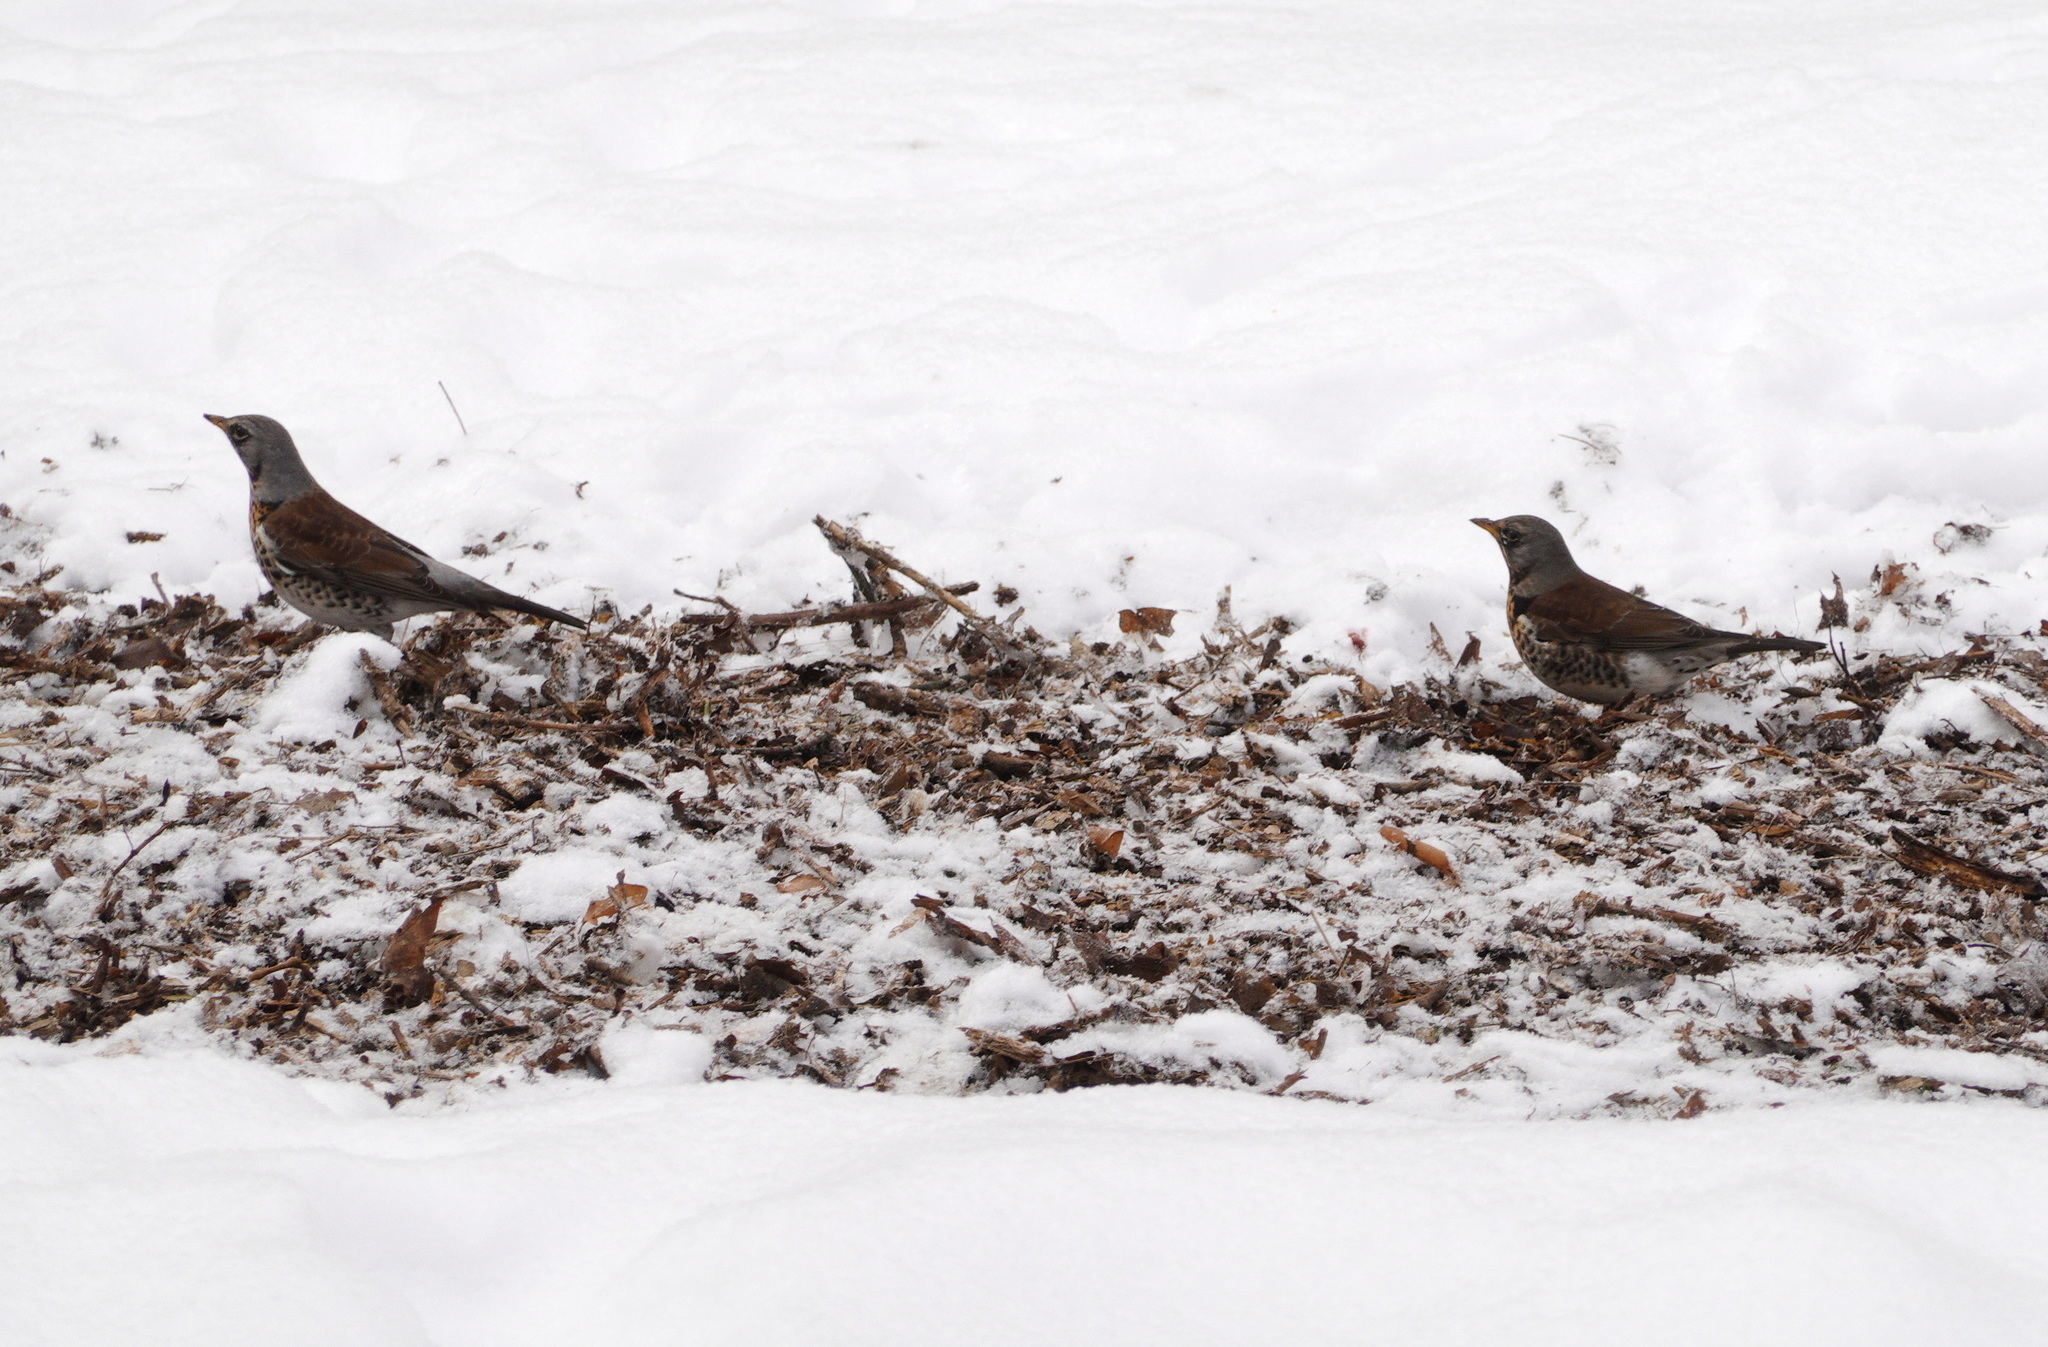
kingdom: Animalia
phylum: Chordata
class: Aves
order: Passeriformes
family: Turdidae
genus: Turdus
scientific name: Turdus pilaris
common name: Fieldfare
